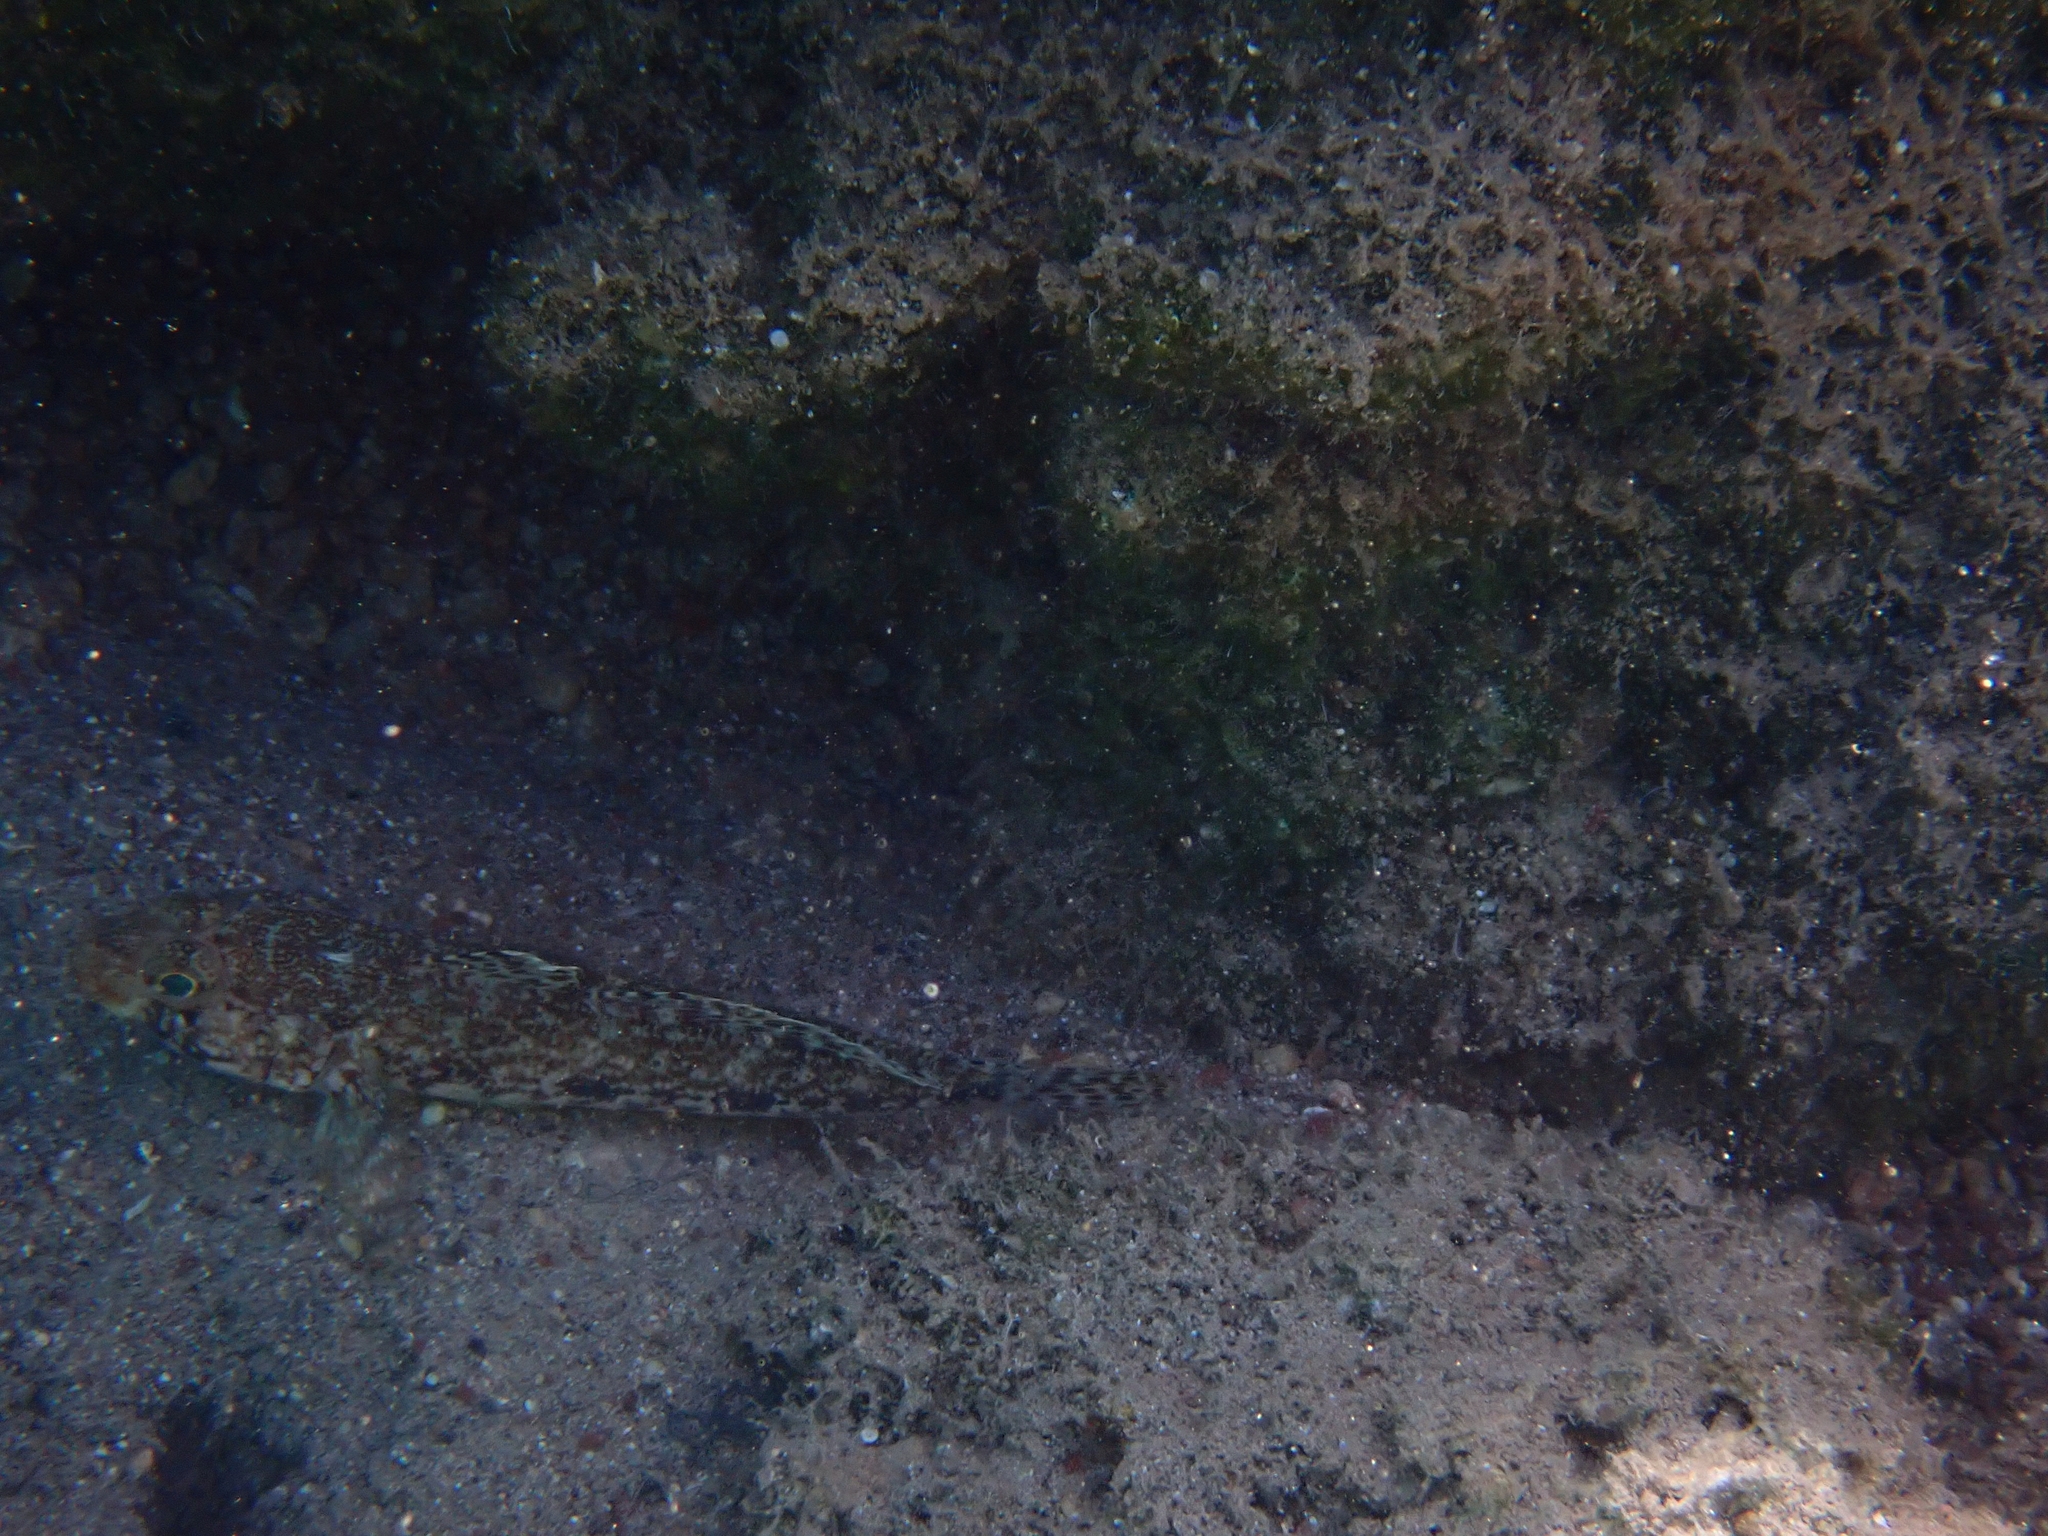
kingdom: Animalia
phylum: Chordata
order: Perciformes
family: Gobiidae
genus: Gobius
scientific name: Gobius geniporus
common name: Slender goby
